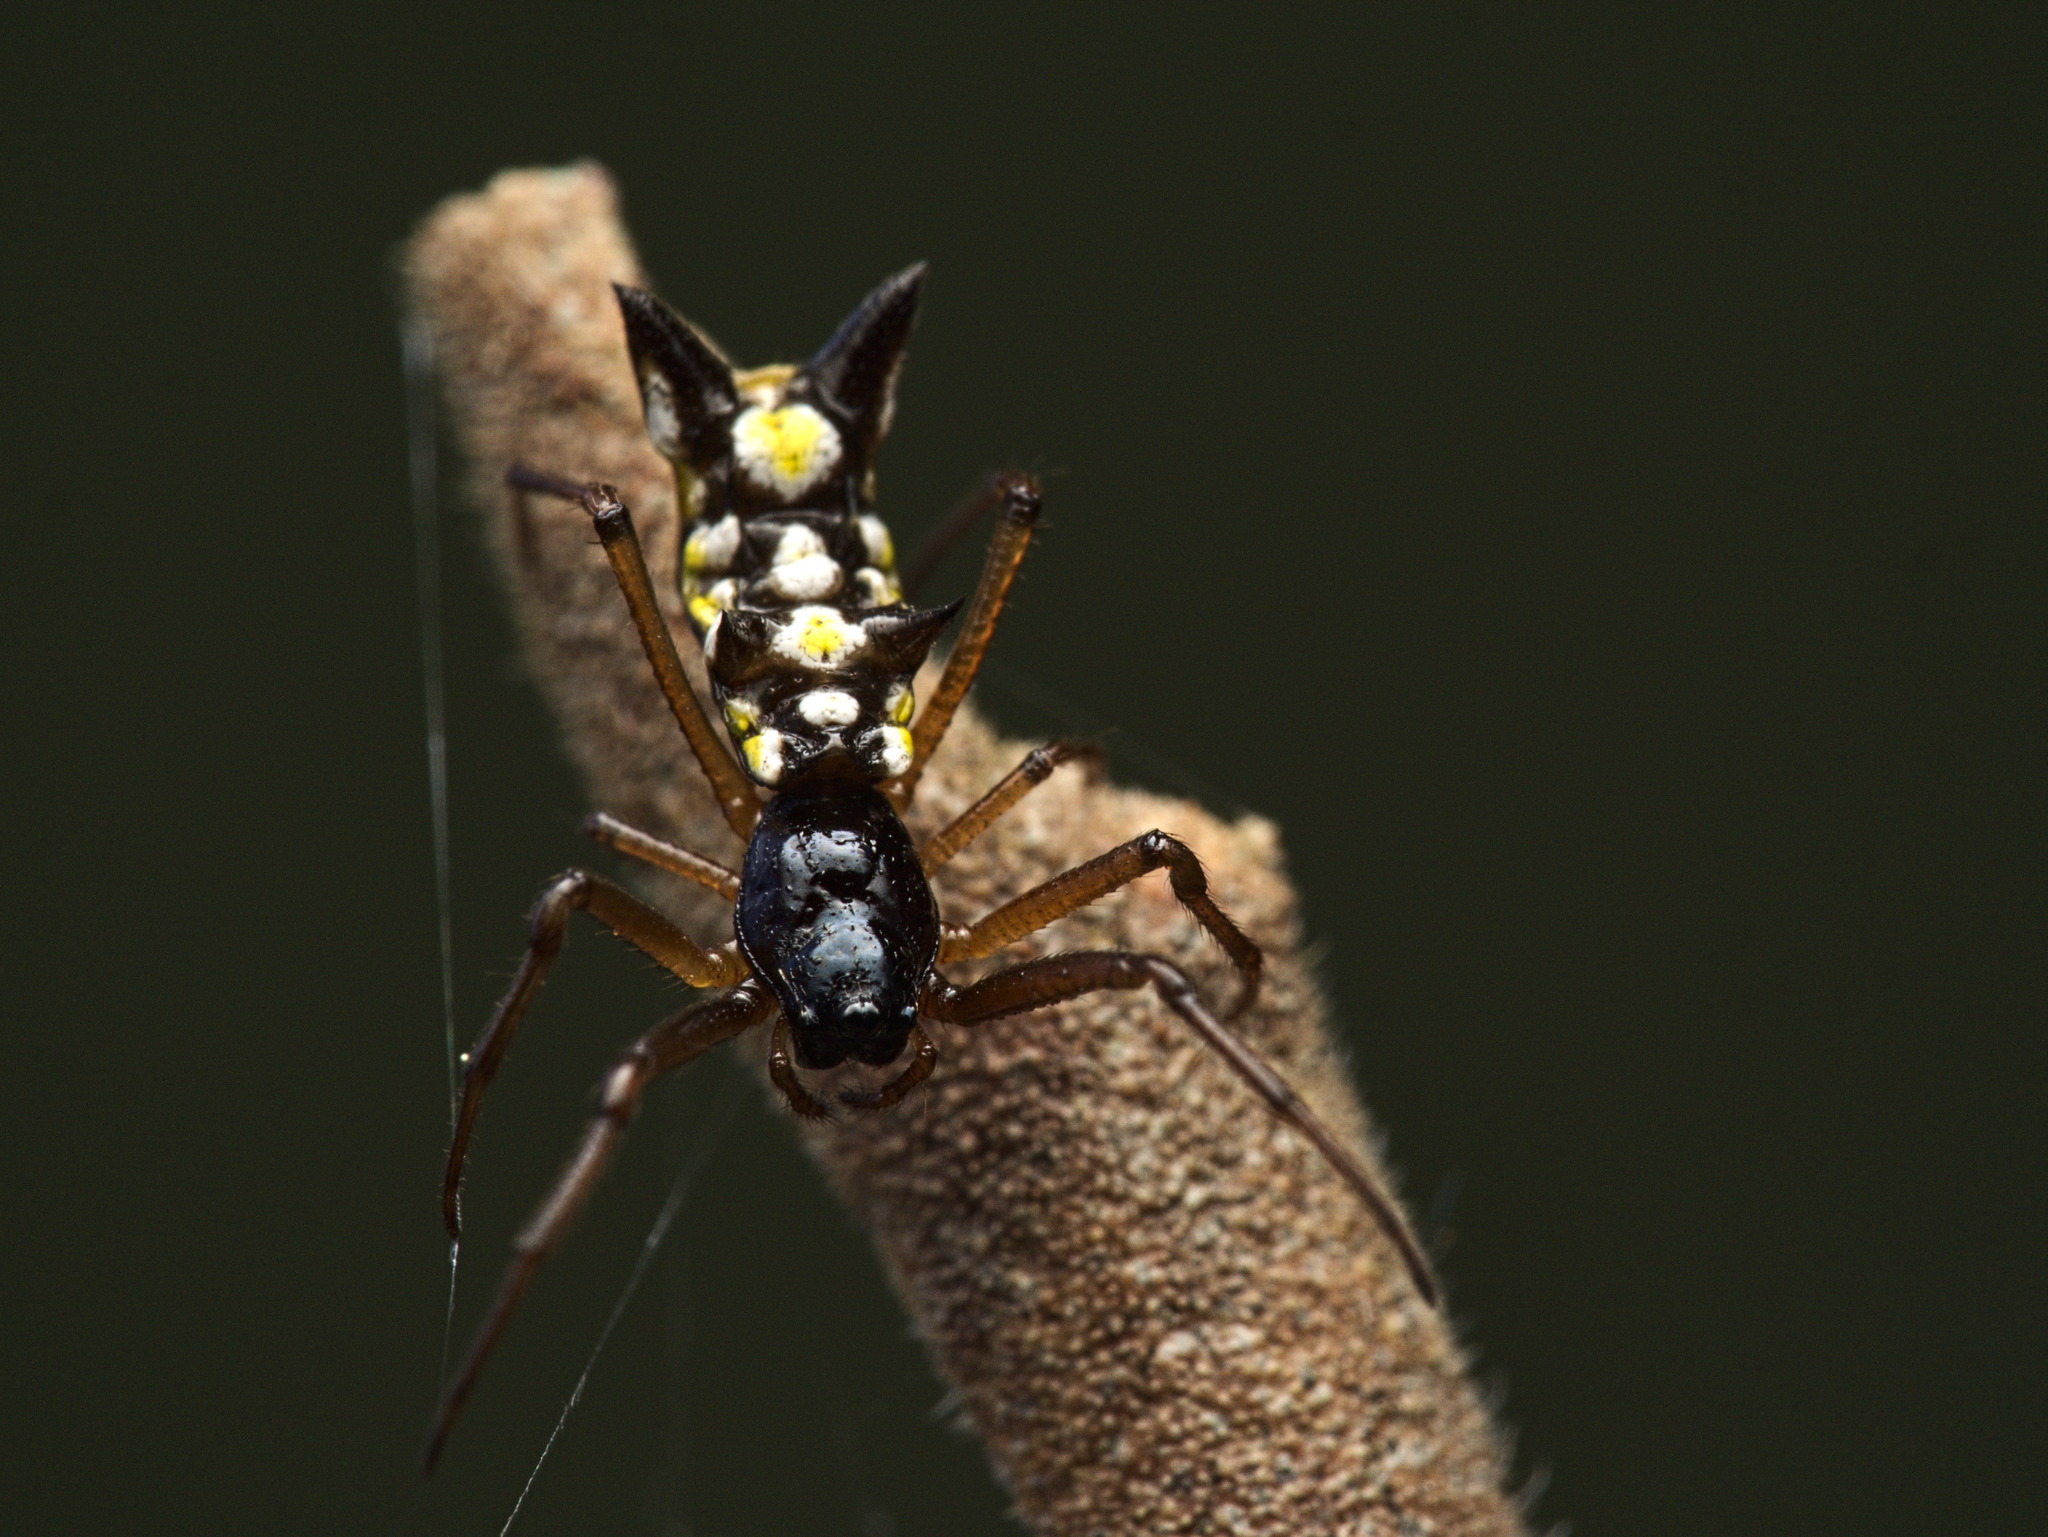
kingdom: Animalia
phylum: Arthropoda
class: Arachnida
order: Araneae
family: Araneidae
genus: Micrathena
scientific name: Micrathena funebris
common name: Orb weavers
